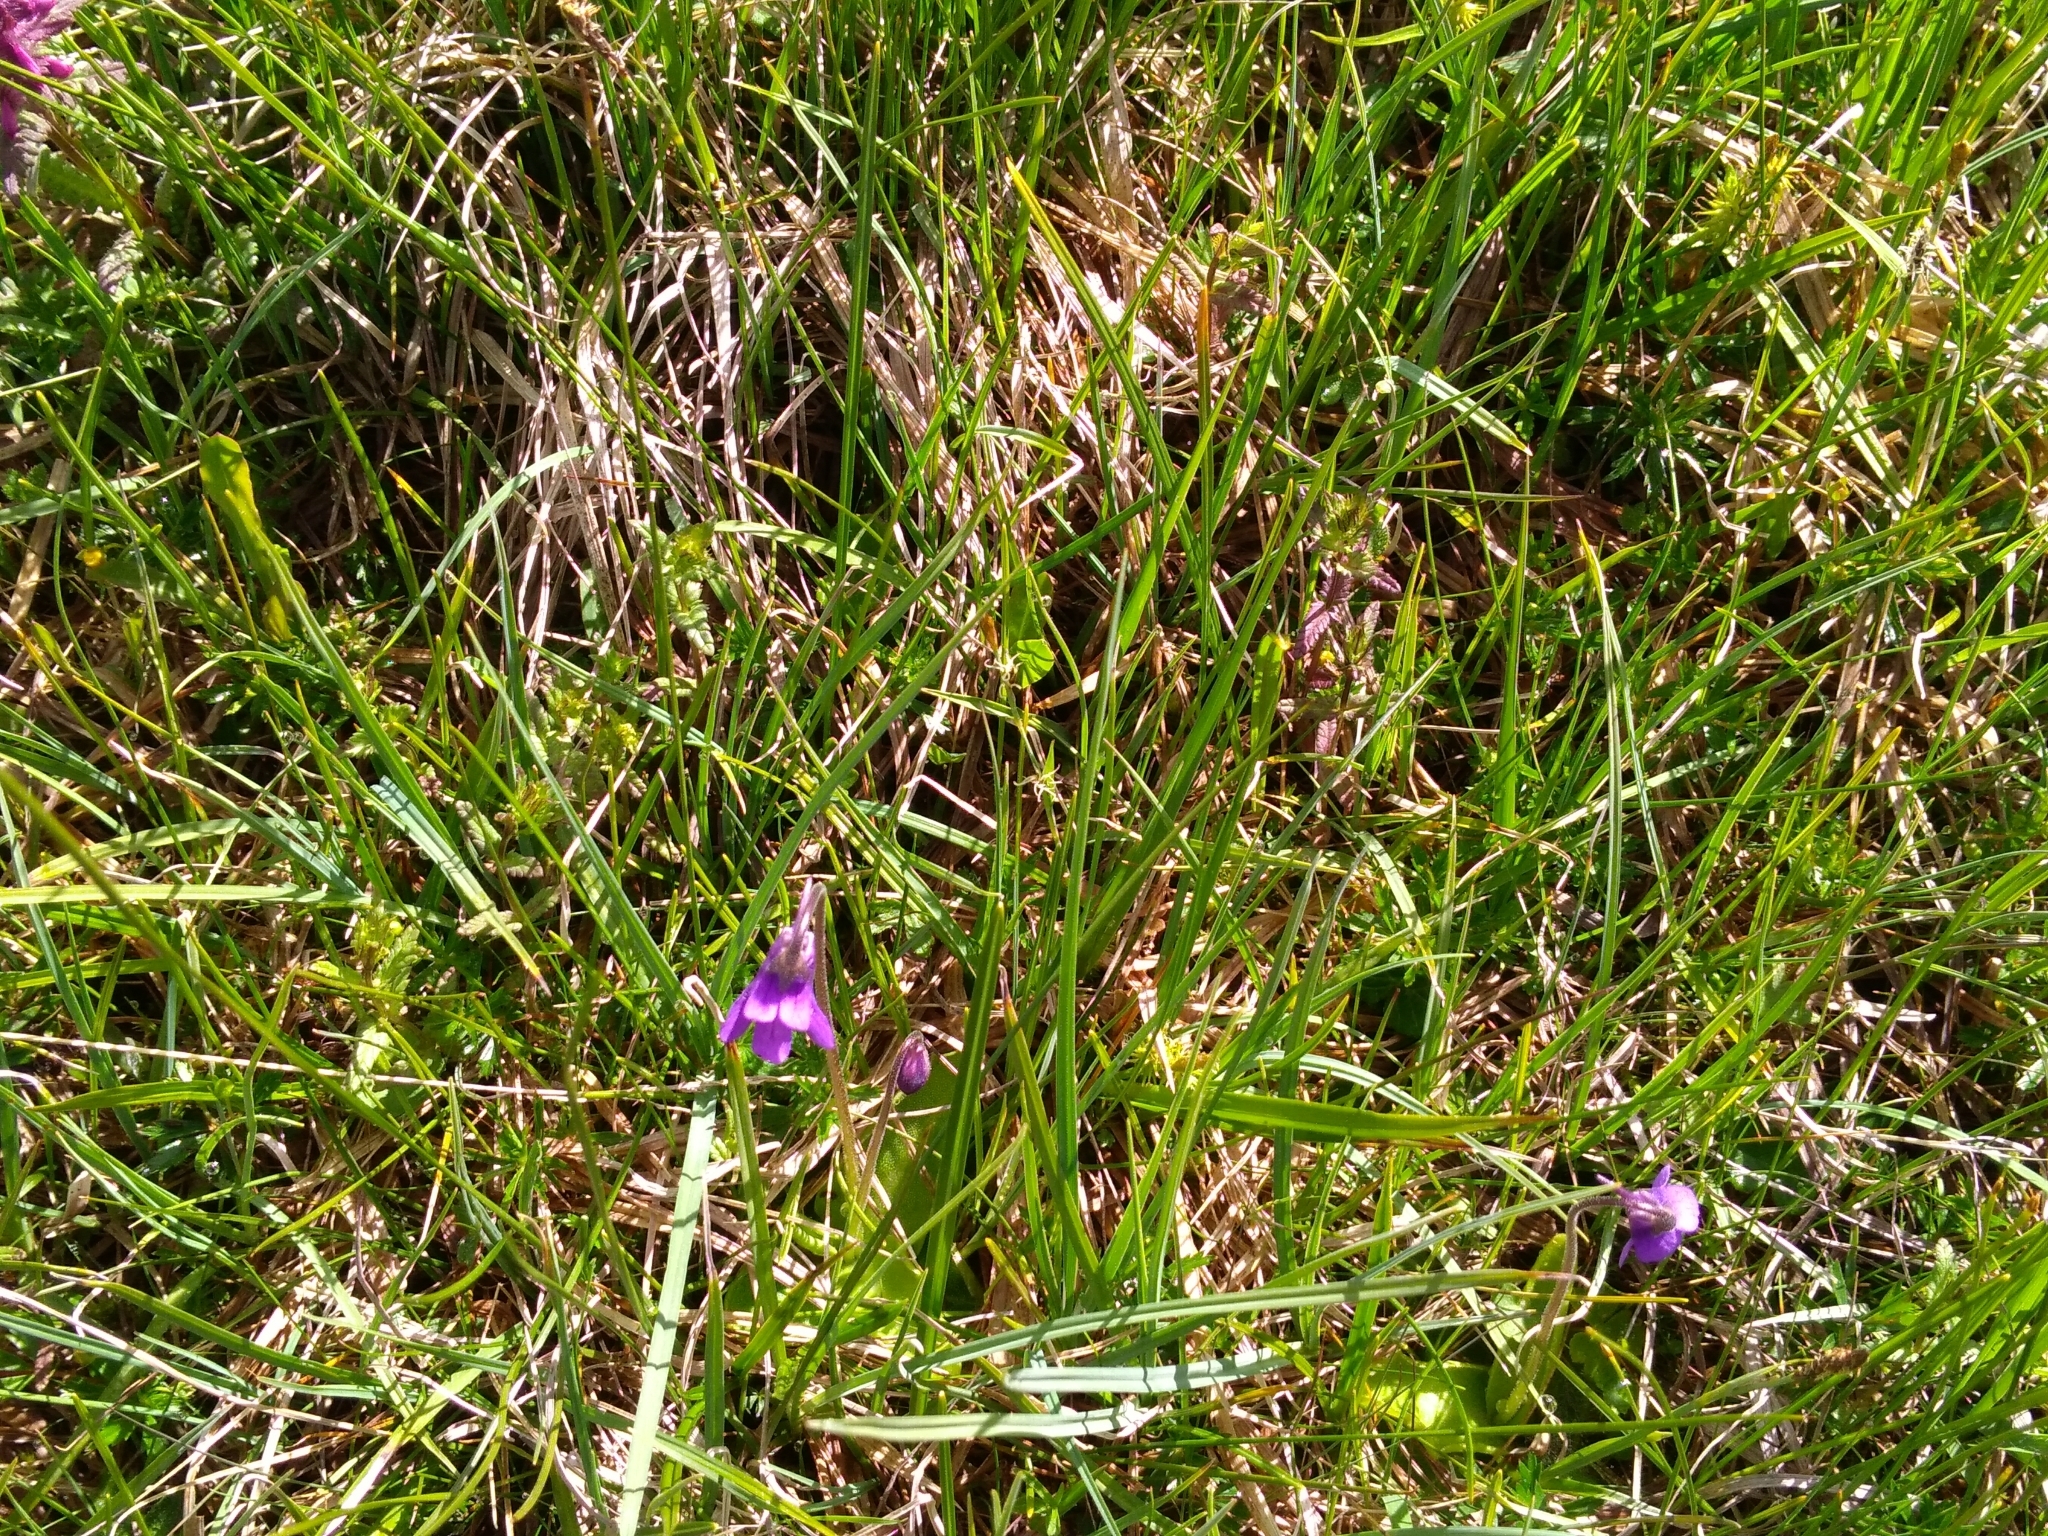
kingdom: Plantae
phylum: Tracheophyta
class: Magnoliopsida
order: Lamiales
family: Lentibulariaceae
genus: Pinguicula
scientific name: Pinguicula vulgaris
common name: Common butterwort
